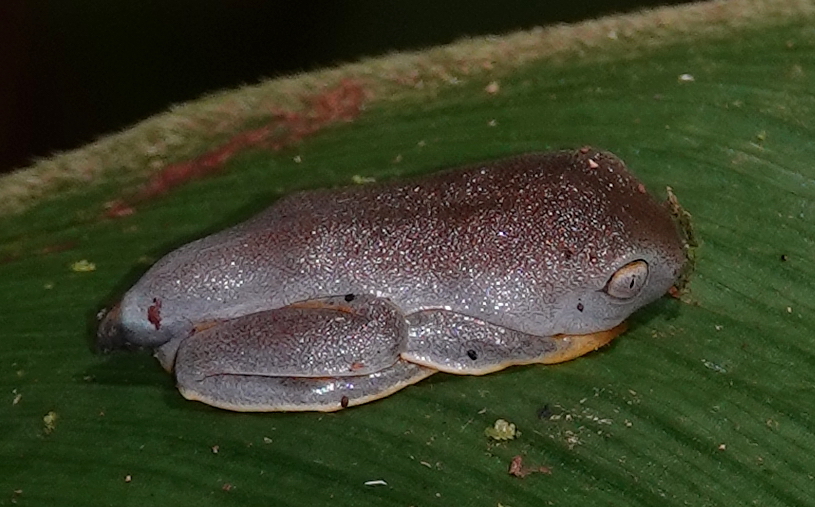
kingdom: Animalia
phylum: Chordata
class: Amphibia
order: Anura
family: Phyllomedusidae
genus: Cruziohyla
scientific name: Cruziohyla sylviae
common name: Sylvia's tree frog
